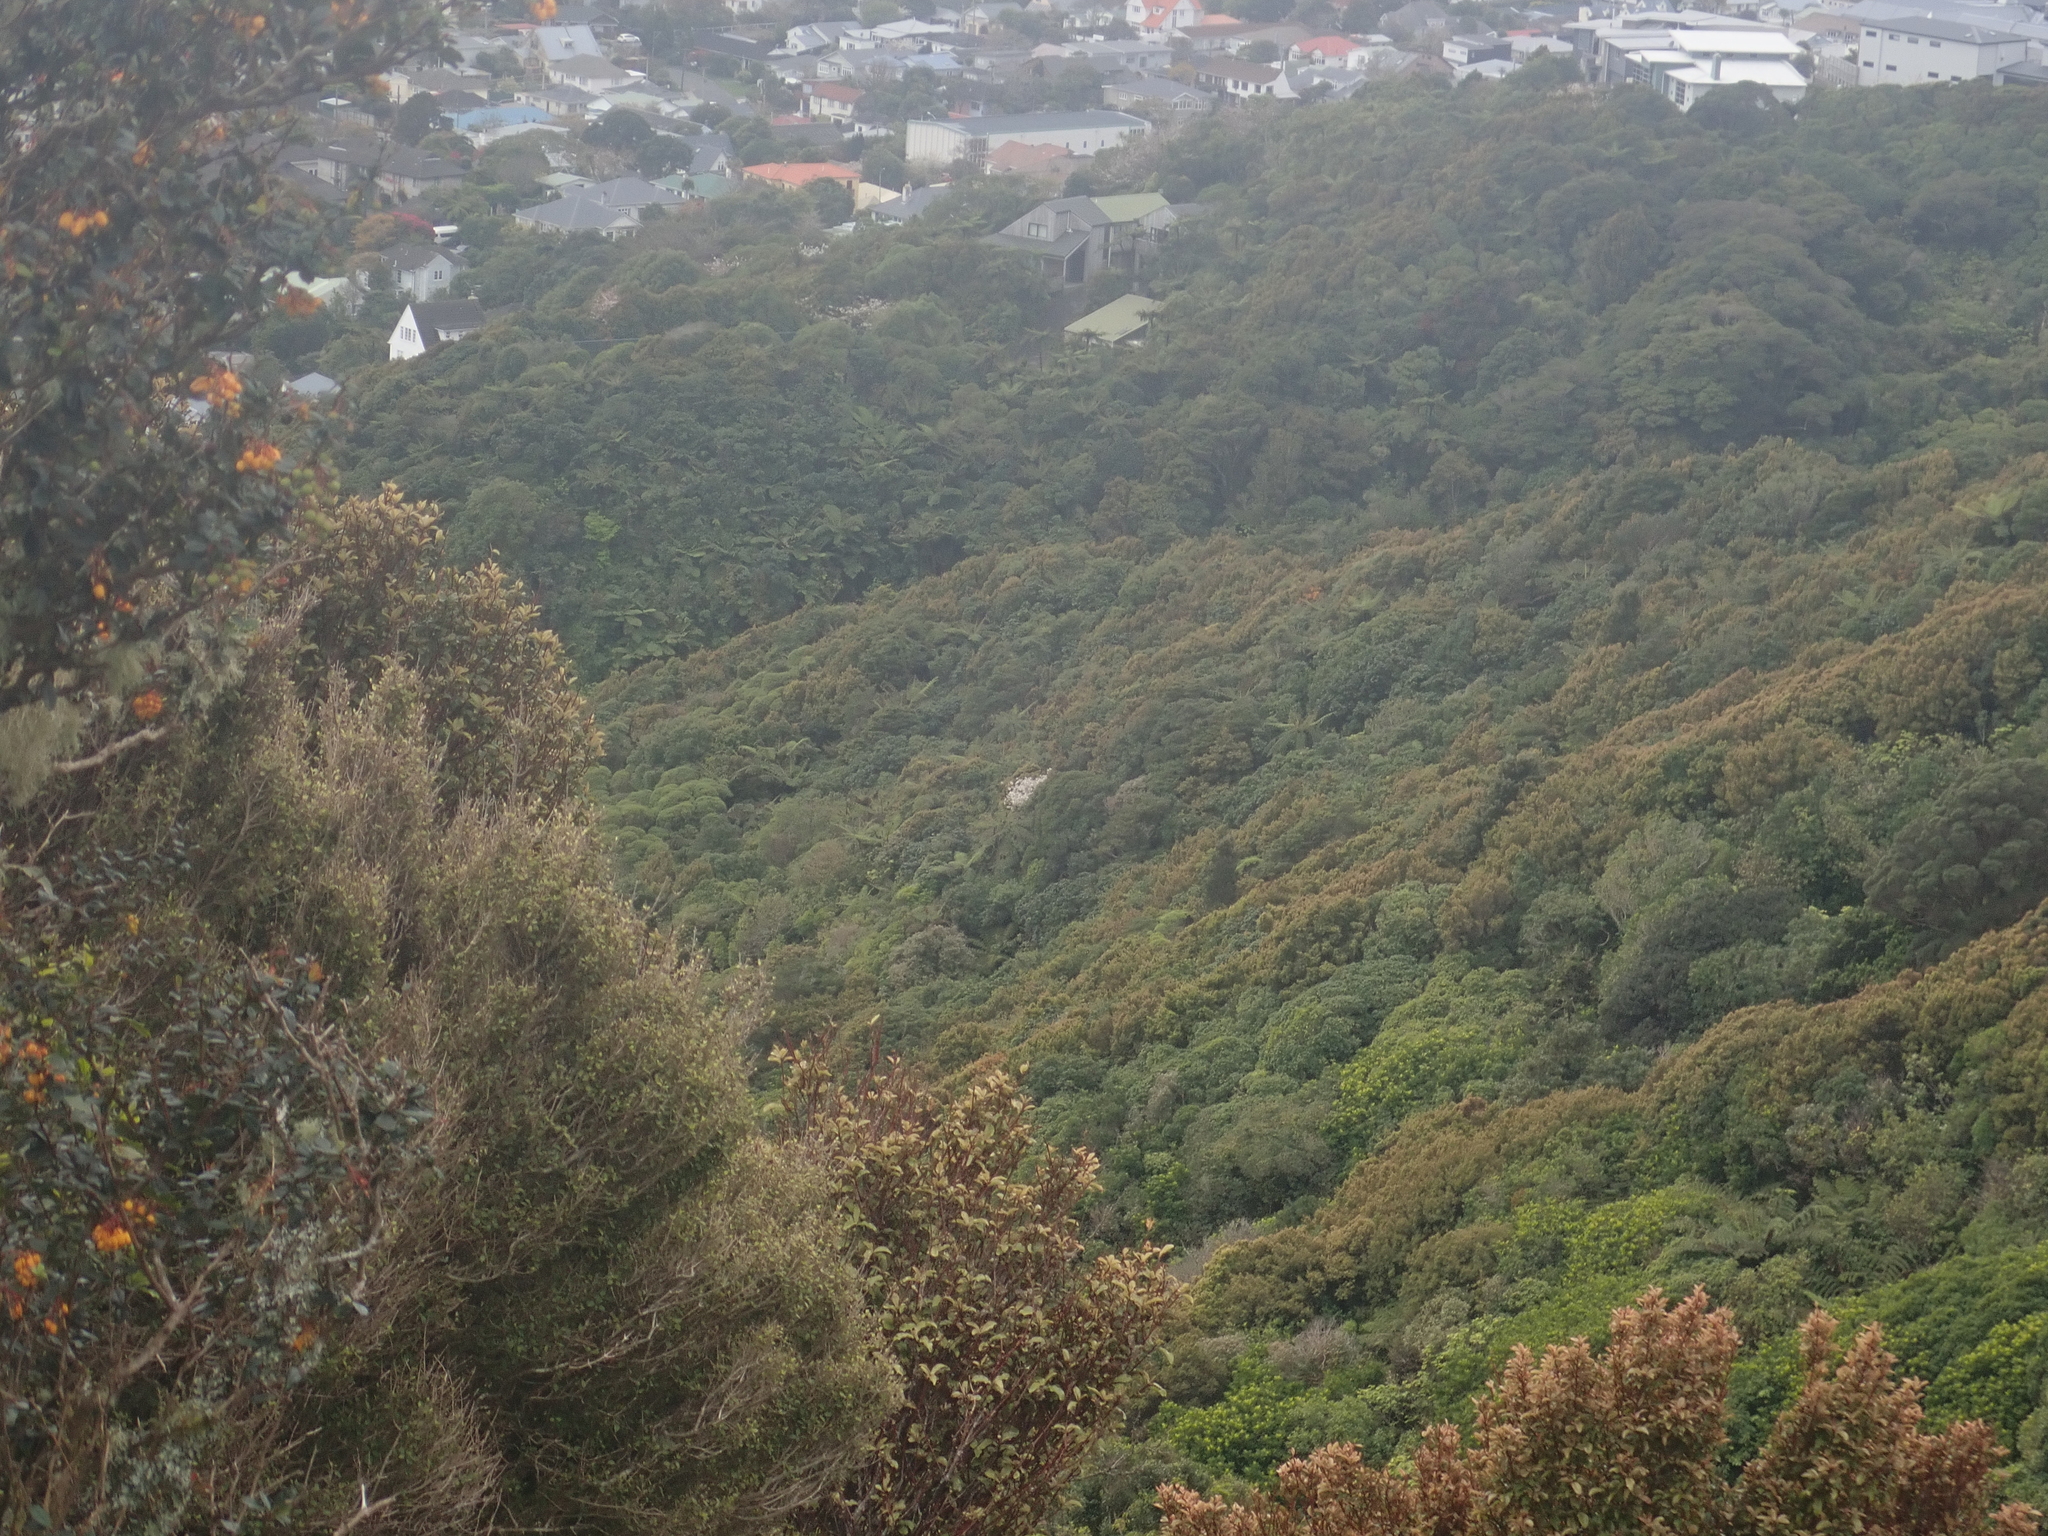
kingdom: Plantae
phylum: Tracheophyta
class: Magnoliopsida
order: Ranunculales
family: Ranunculaceae
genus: Clematis
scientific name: Clematis paniculata
